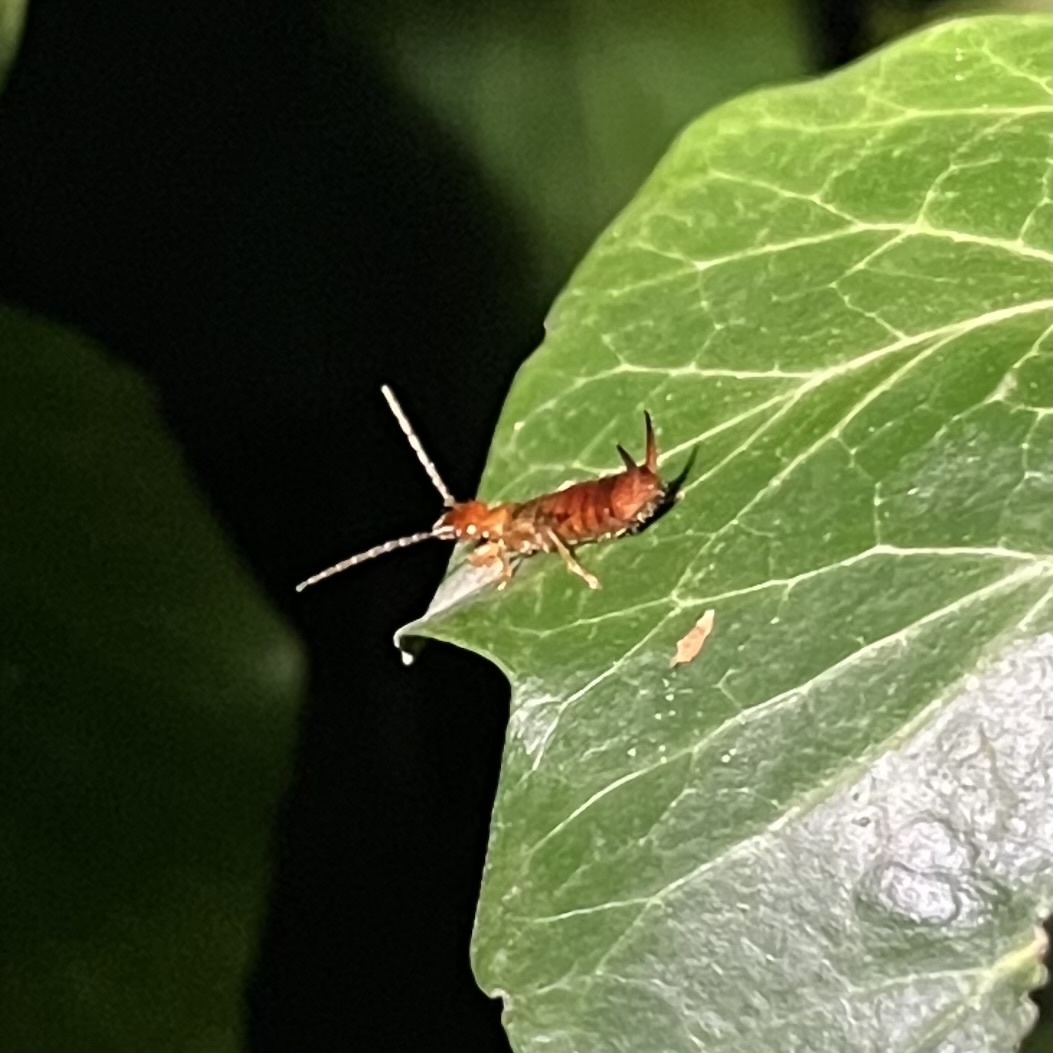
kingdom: Animalia
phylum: Arthropoda
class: Insecta
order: Dermaptera
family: Forficulidae
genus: Apterygida
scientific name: Apterygida albipennis
